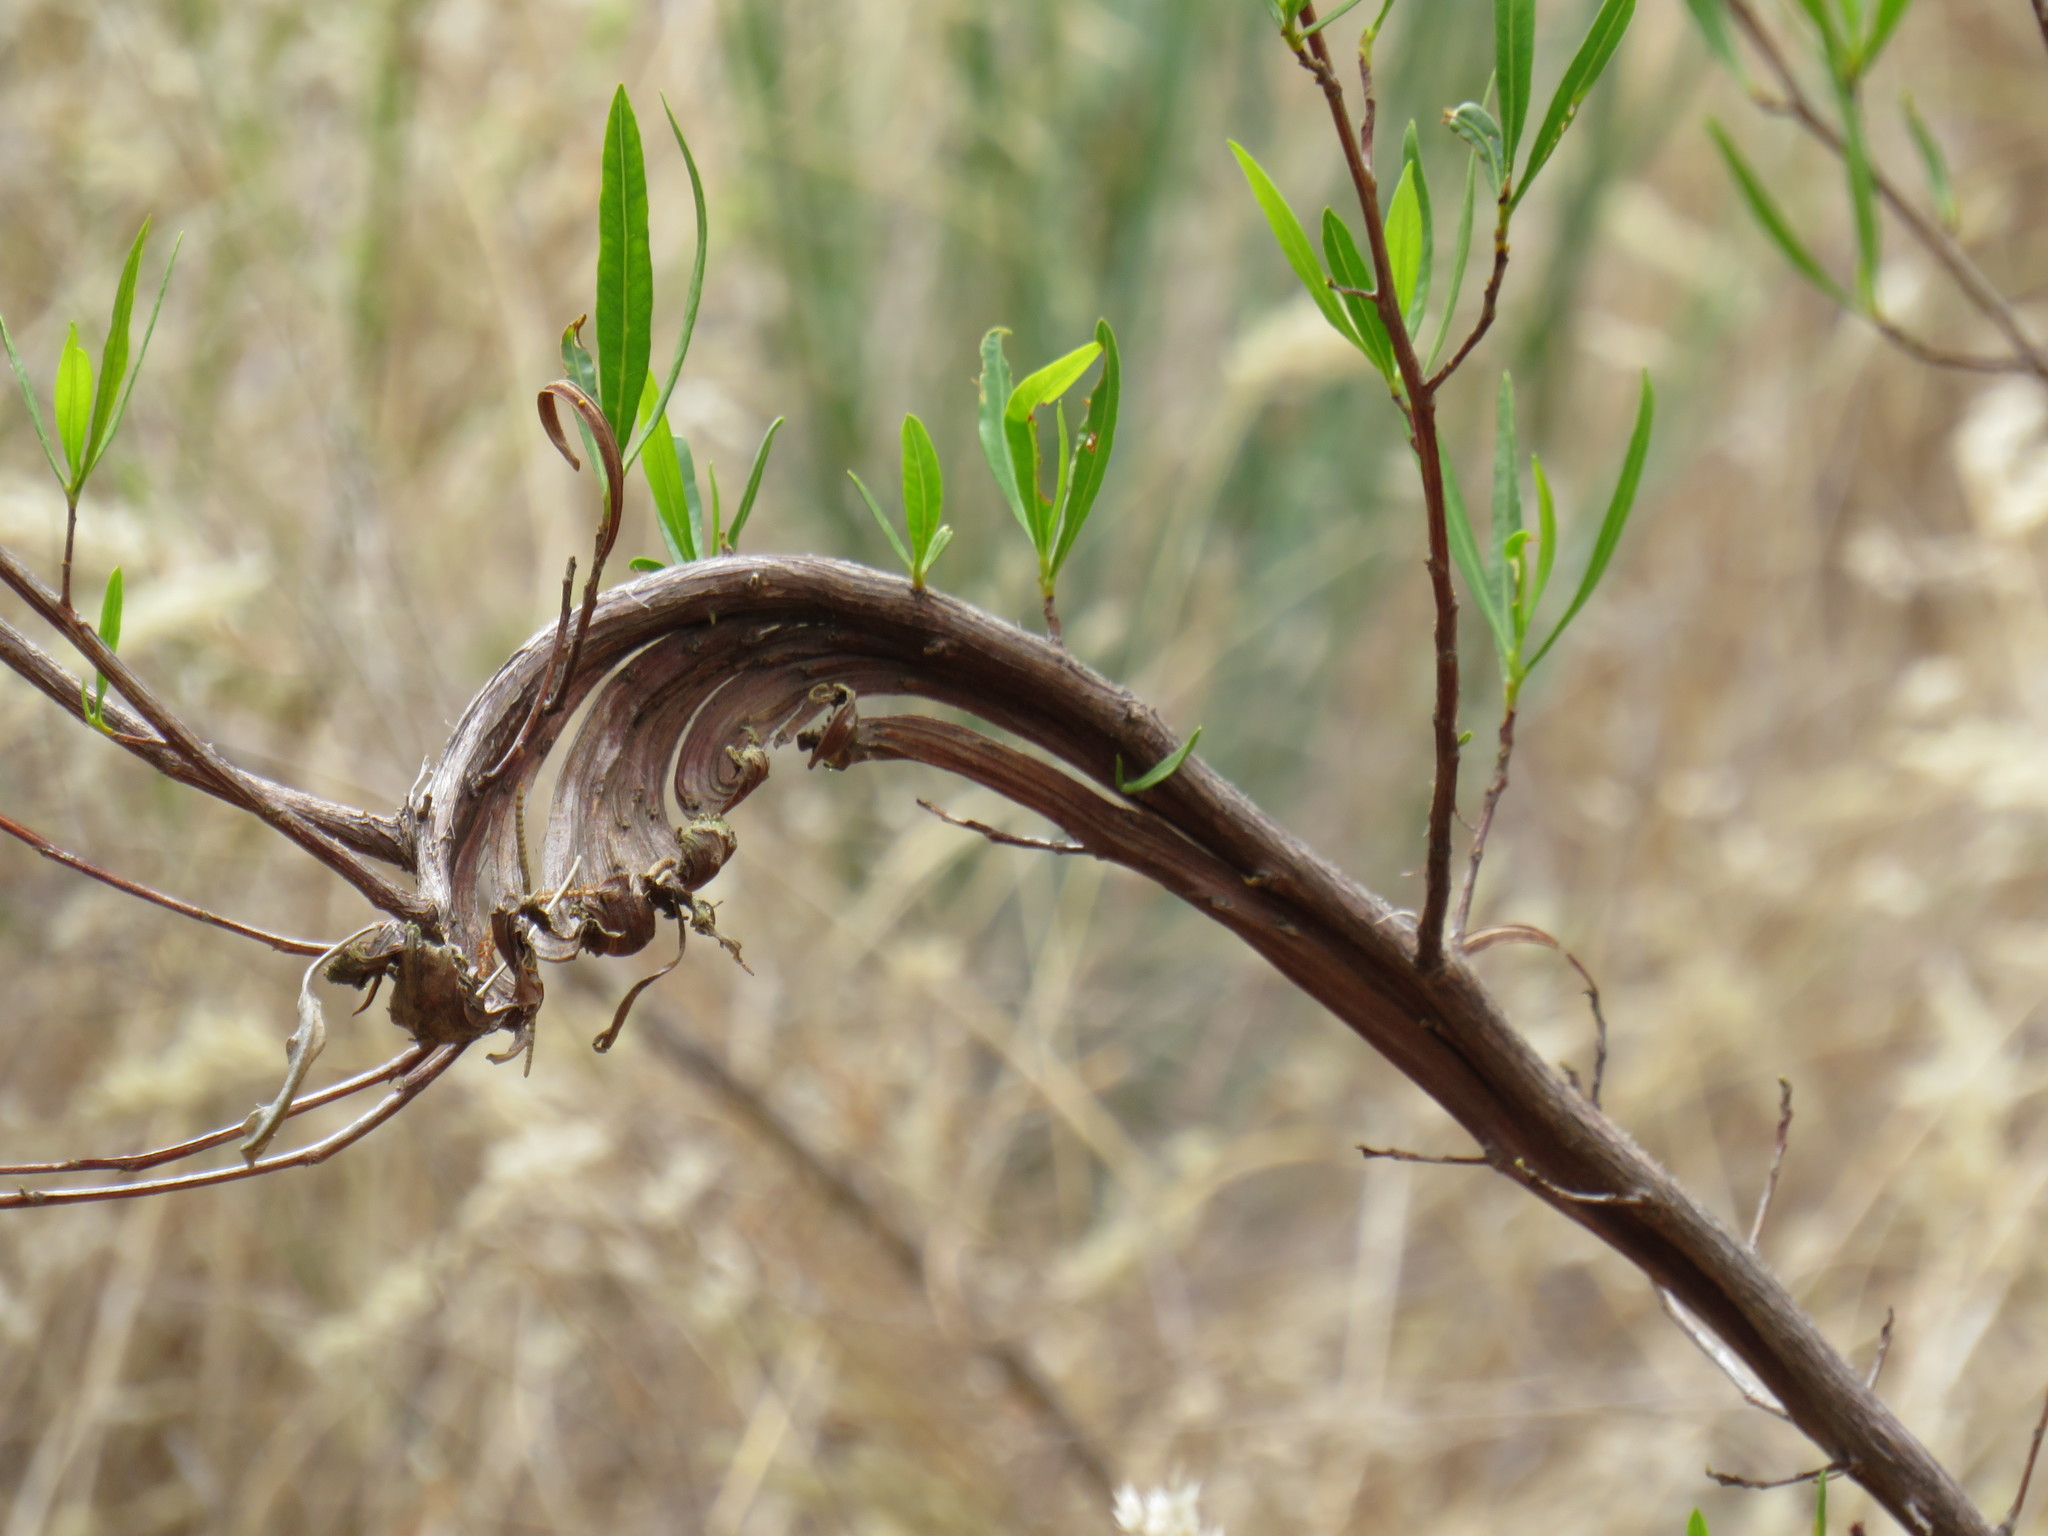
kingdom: Plantae
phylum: Tracheophyta
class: Magnoliopsida
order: Sapindales
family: Sapindaceae
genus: Dodonaea
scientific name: Dodonaea viscosa
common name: Hopbush
